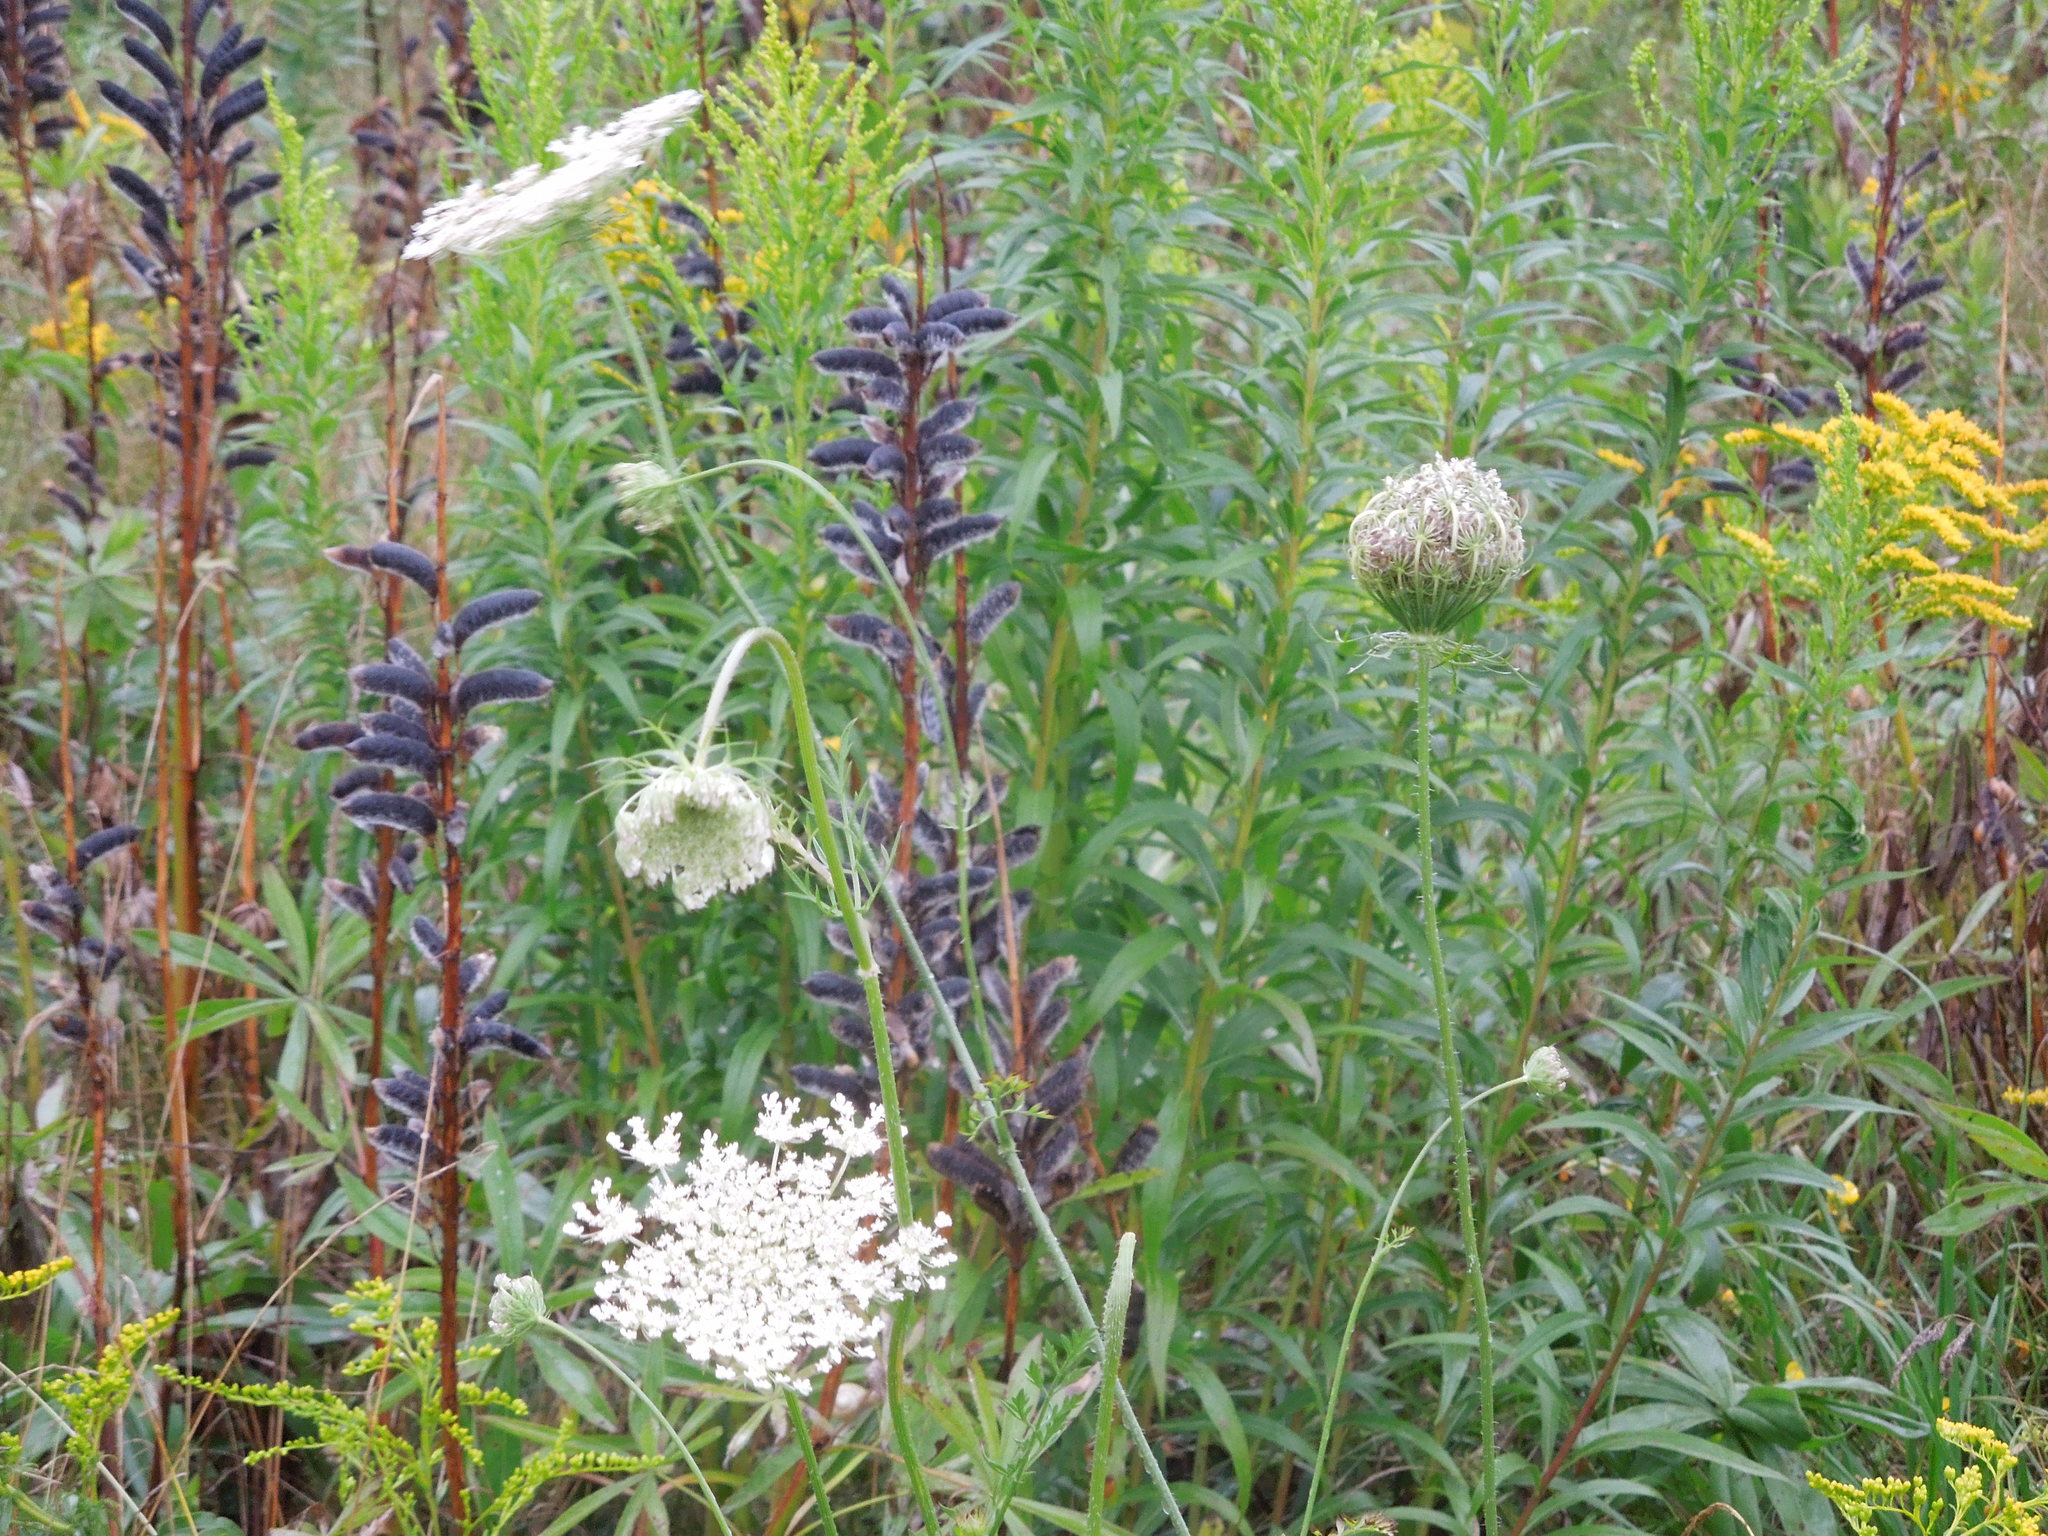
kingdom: Plantae
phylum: Tracheophyta
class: Magnoliopsida
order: Apiales
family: Apiaceae
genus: Daucus
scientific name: Daucus carota
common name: Wild carrot
